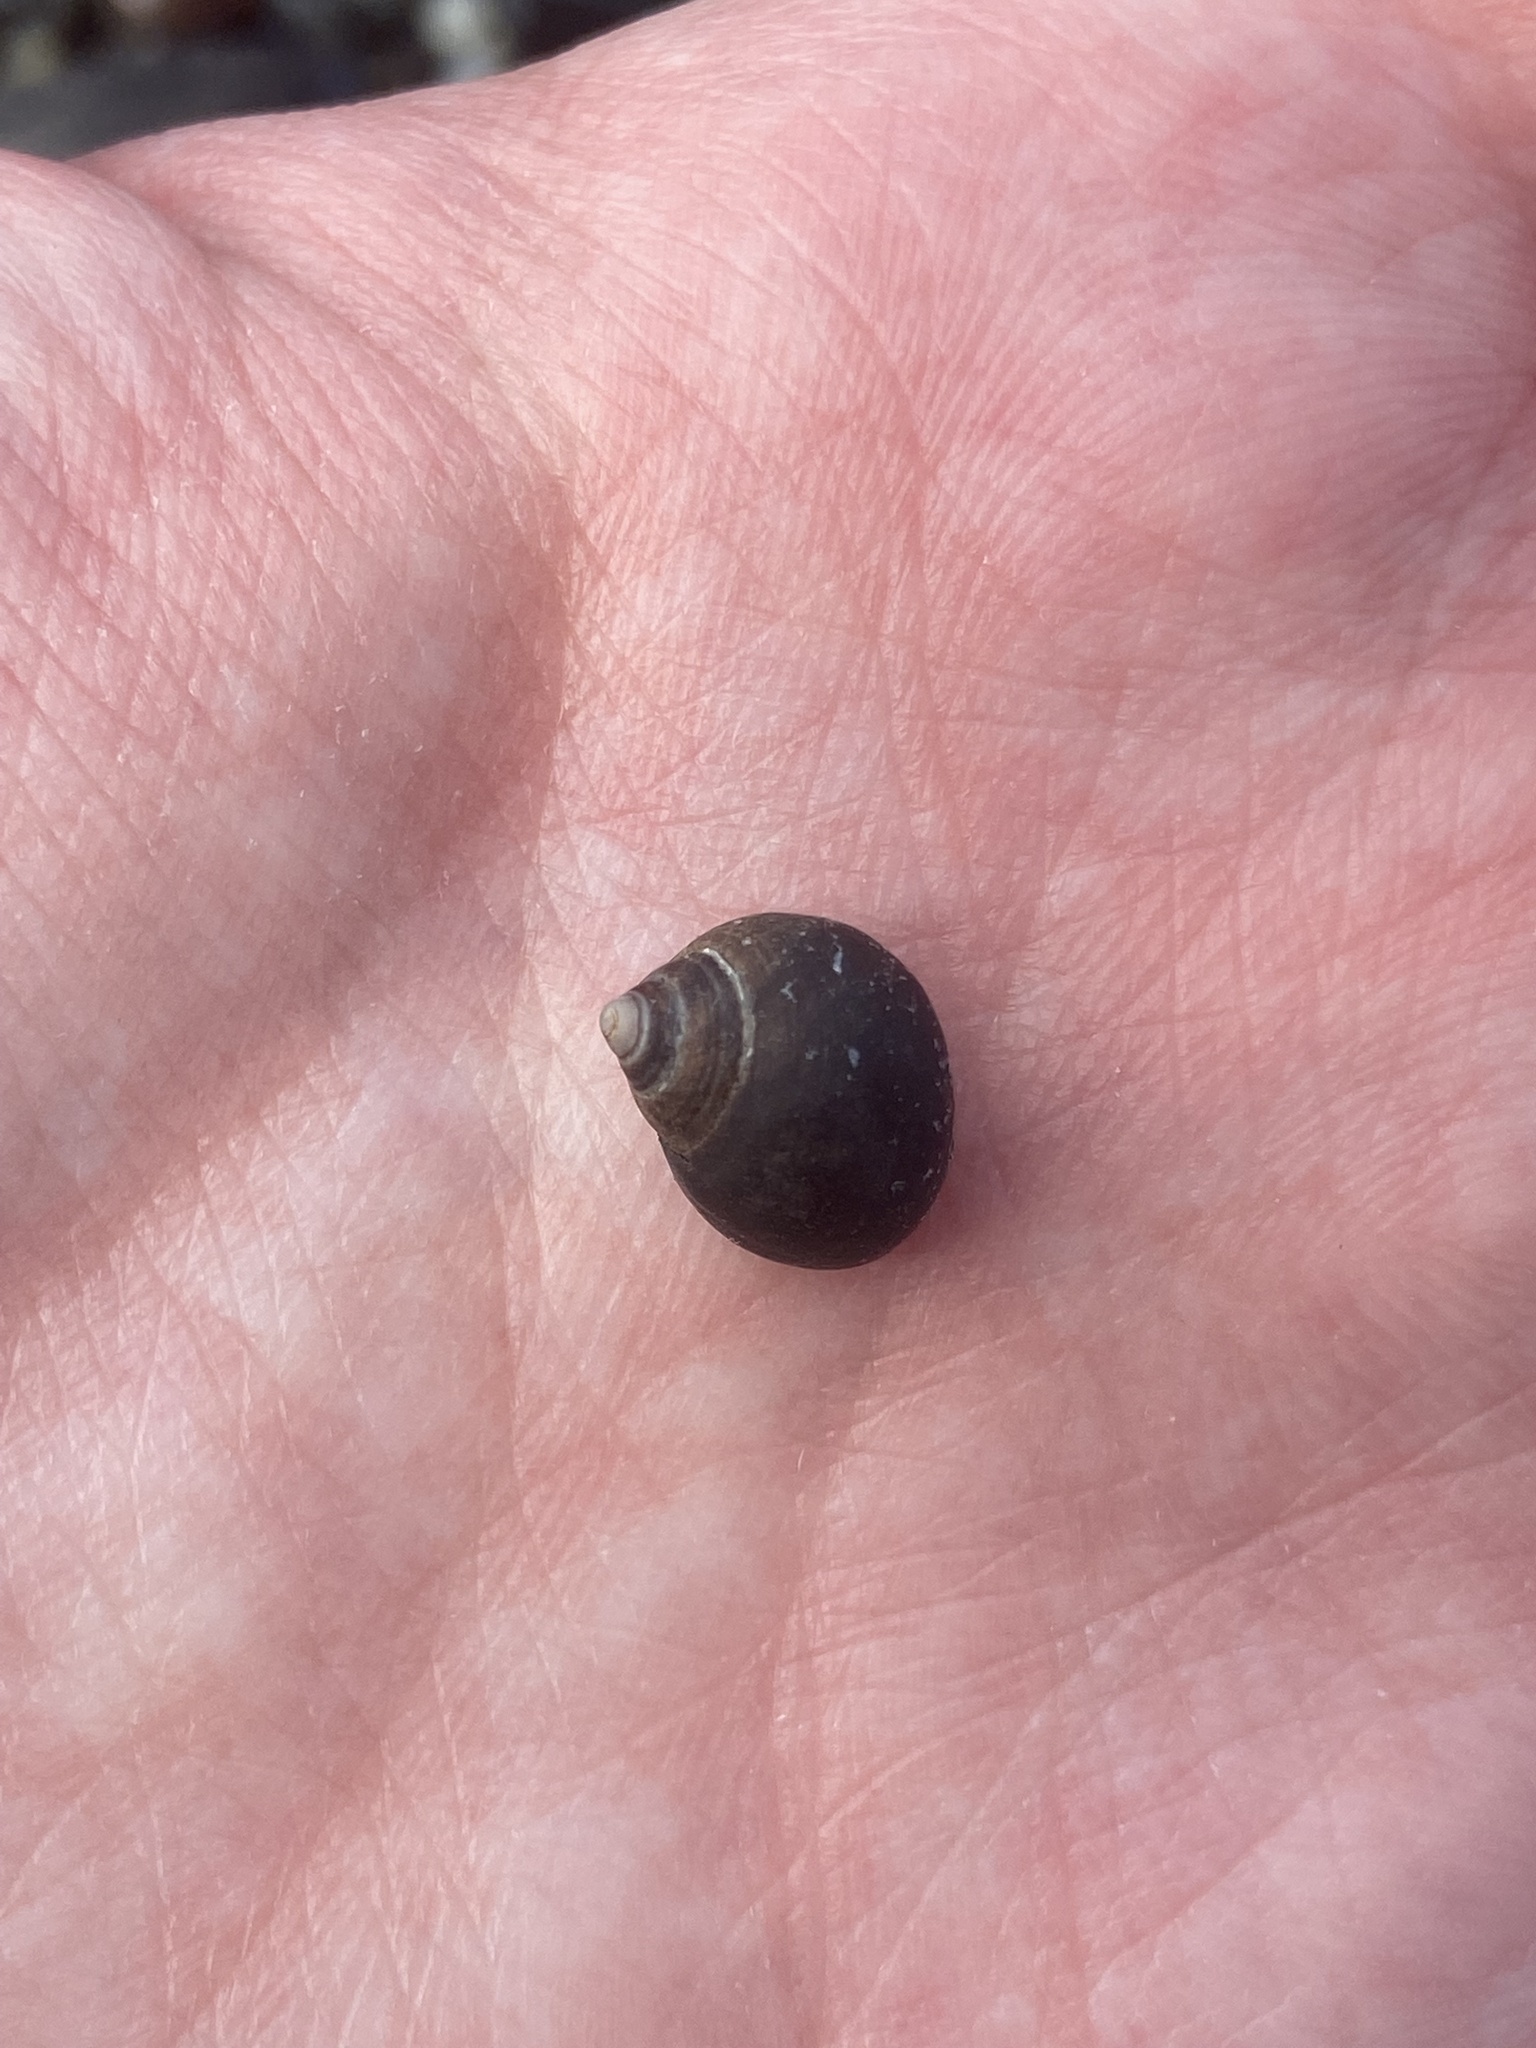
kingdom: Animalia
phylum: Mollusca
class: Gastropoda
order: Littorinimorpha
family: Littorinidae
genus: Littorina
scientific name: Littorina littorea
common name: Common periwinkle
